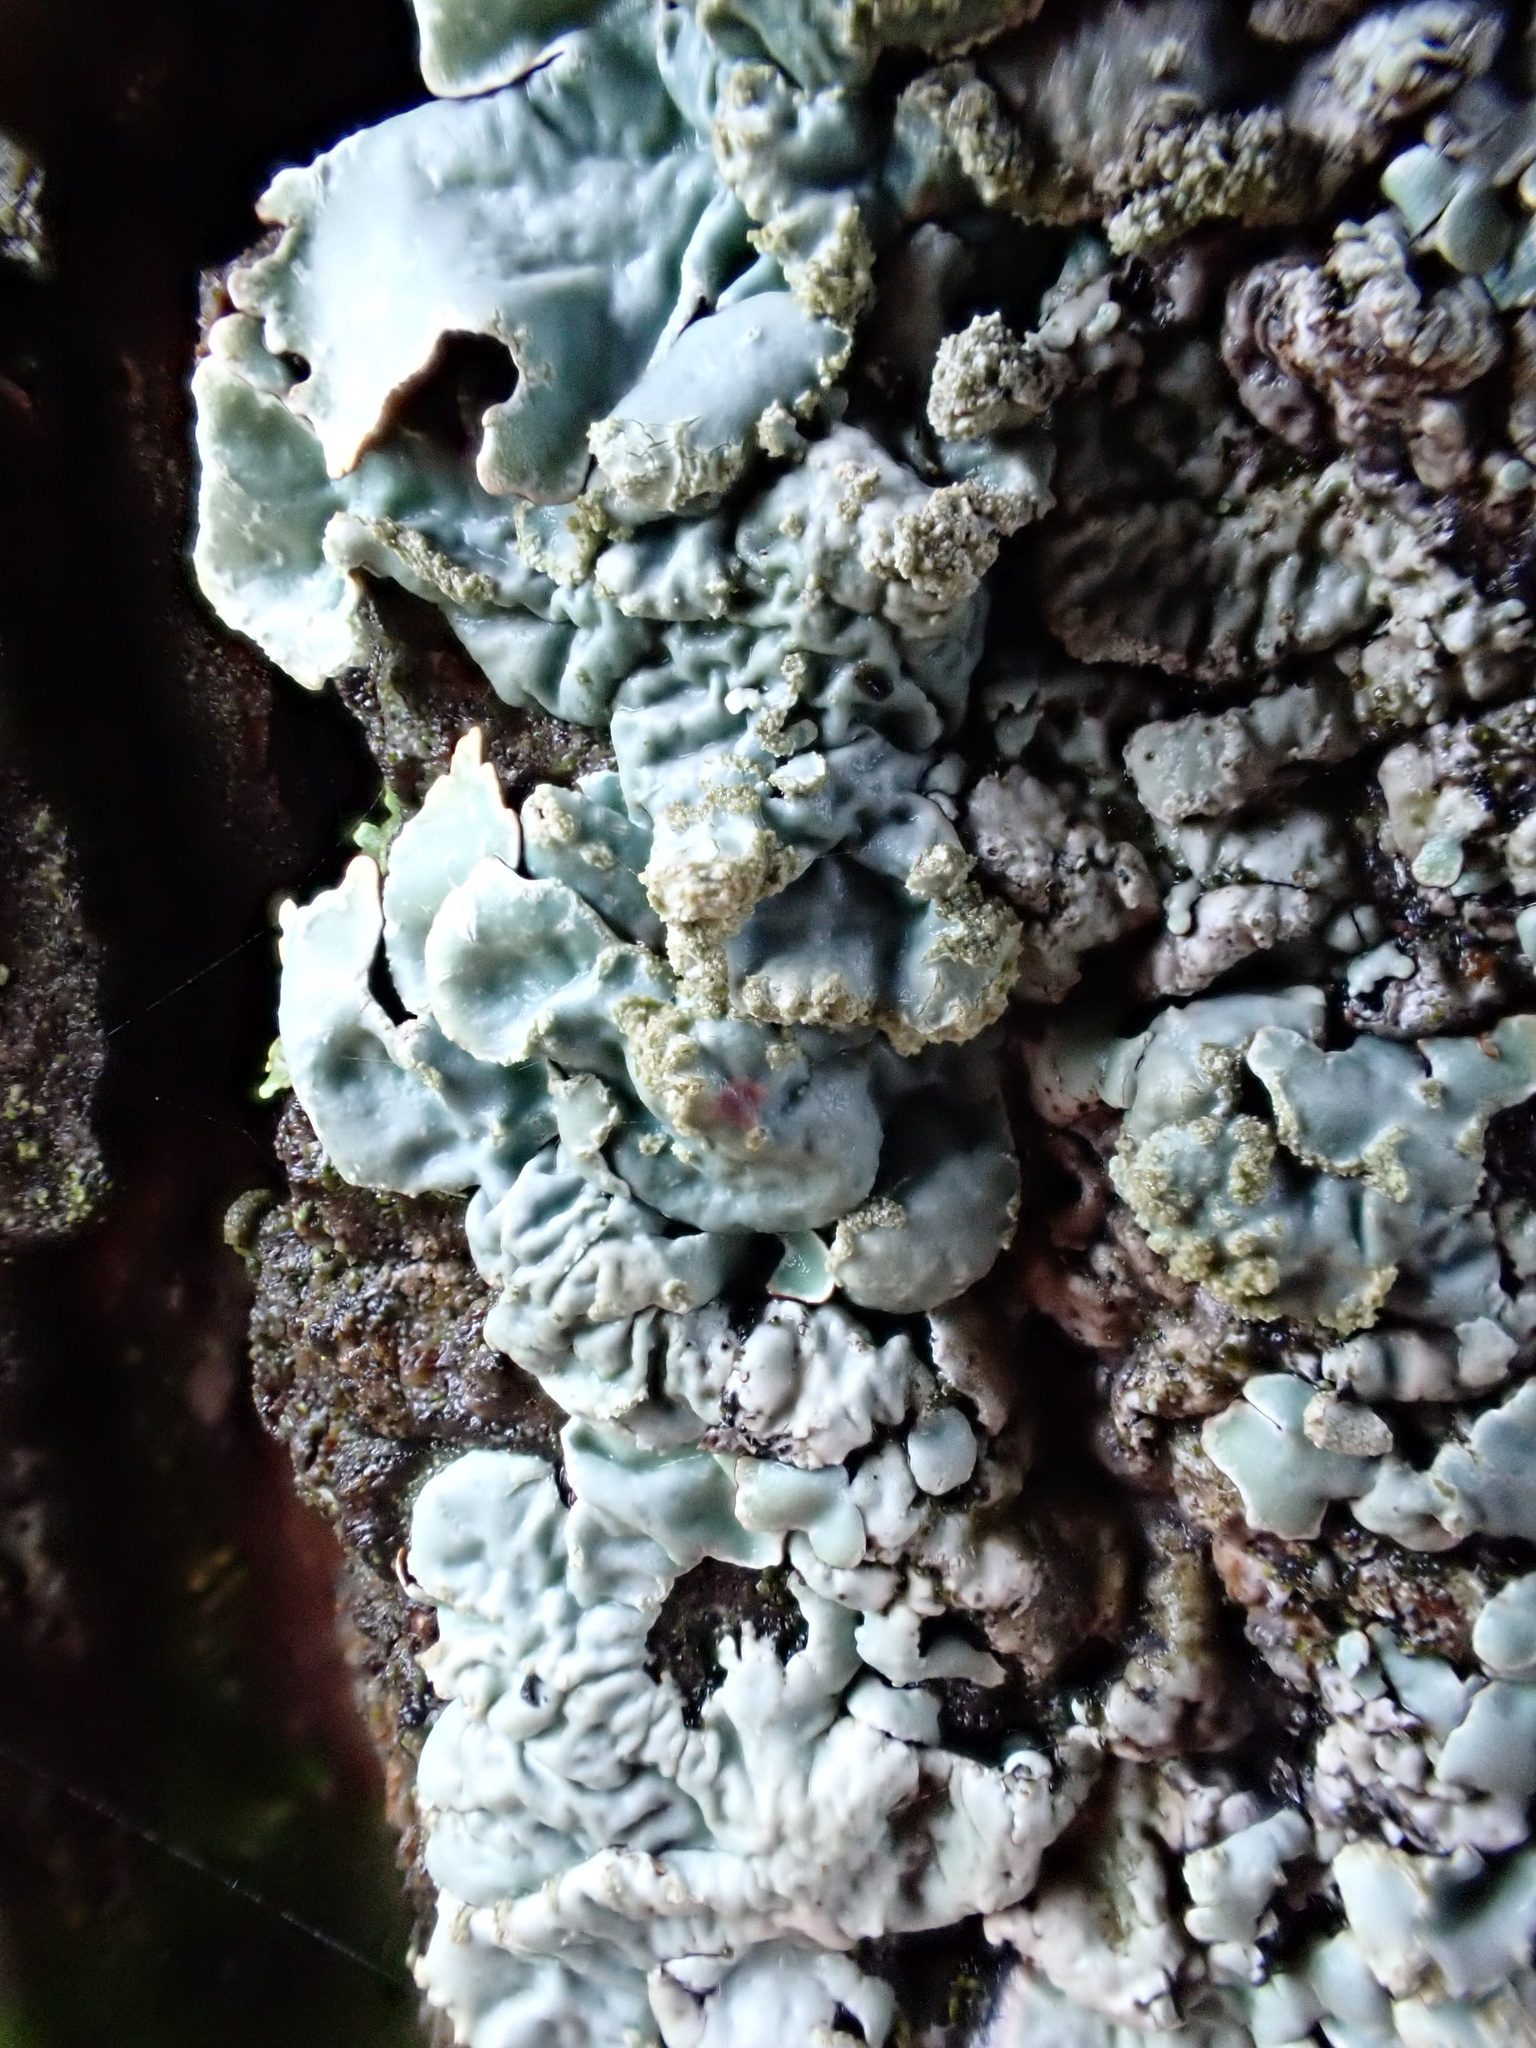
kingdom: Fungi
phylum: Ascomycota
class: Lecanoromycetes
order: Lecanorales
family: Parmeliaceae
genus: Parmelia
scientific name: Parmelia sulcata
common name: Netted shield lichen
